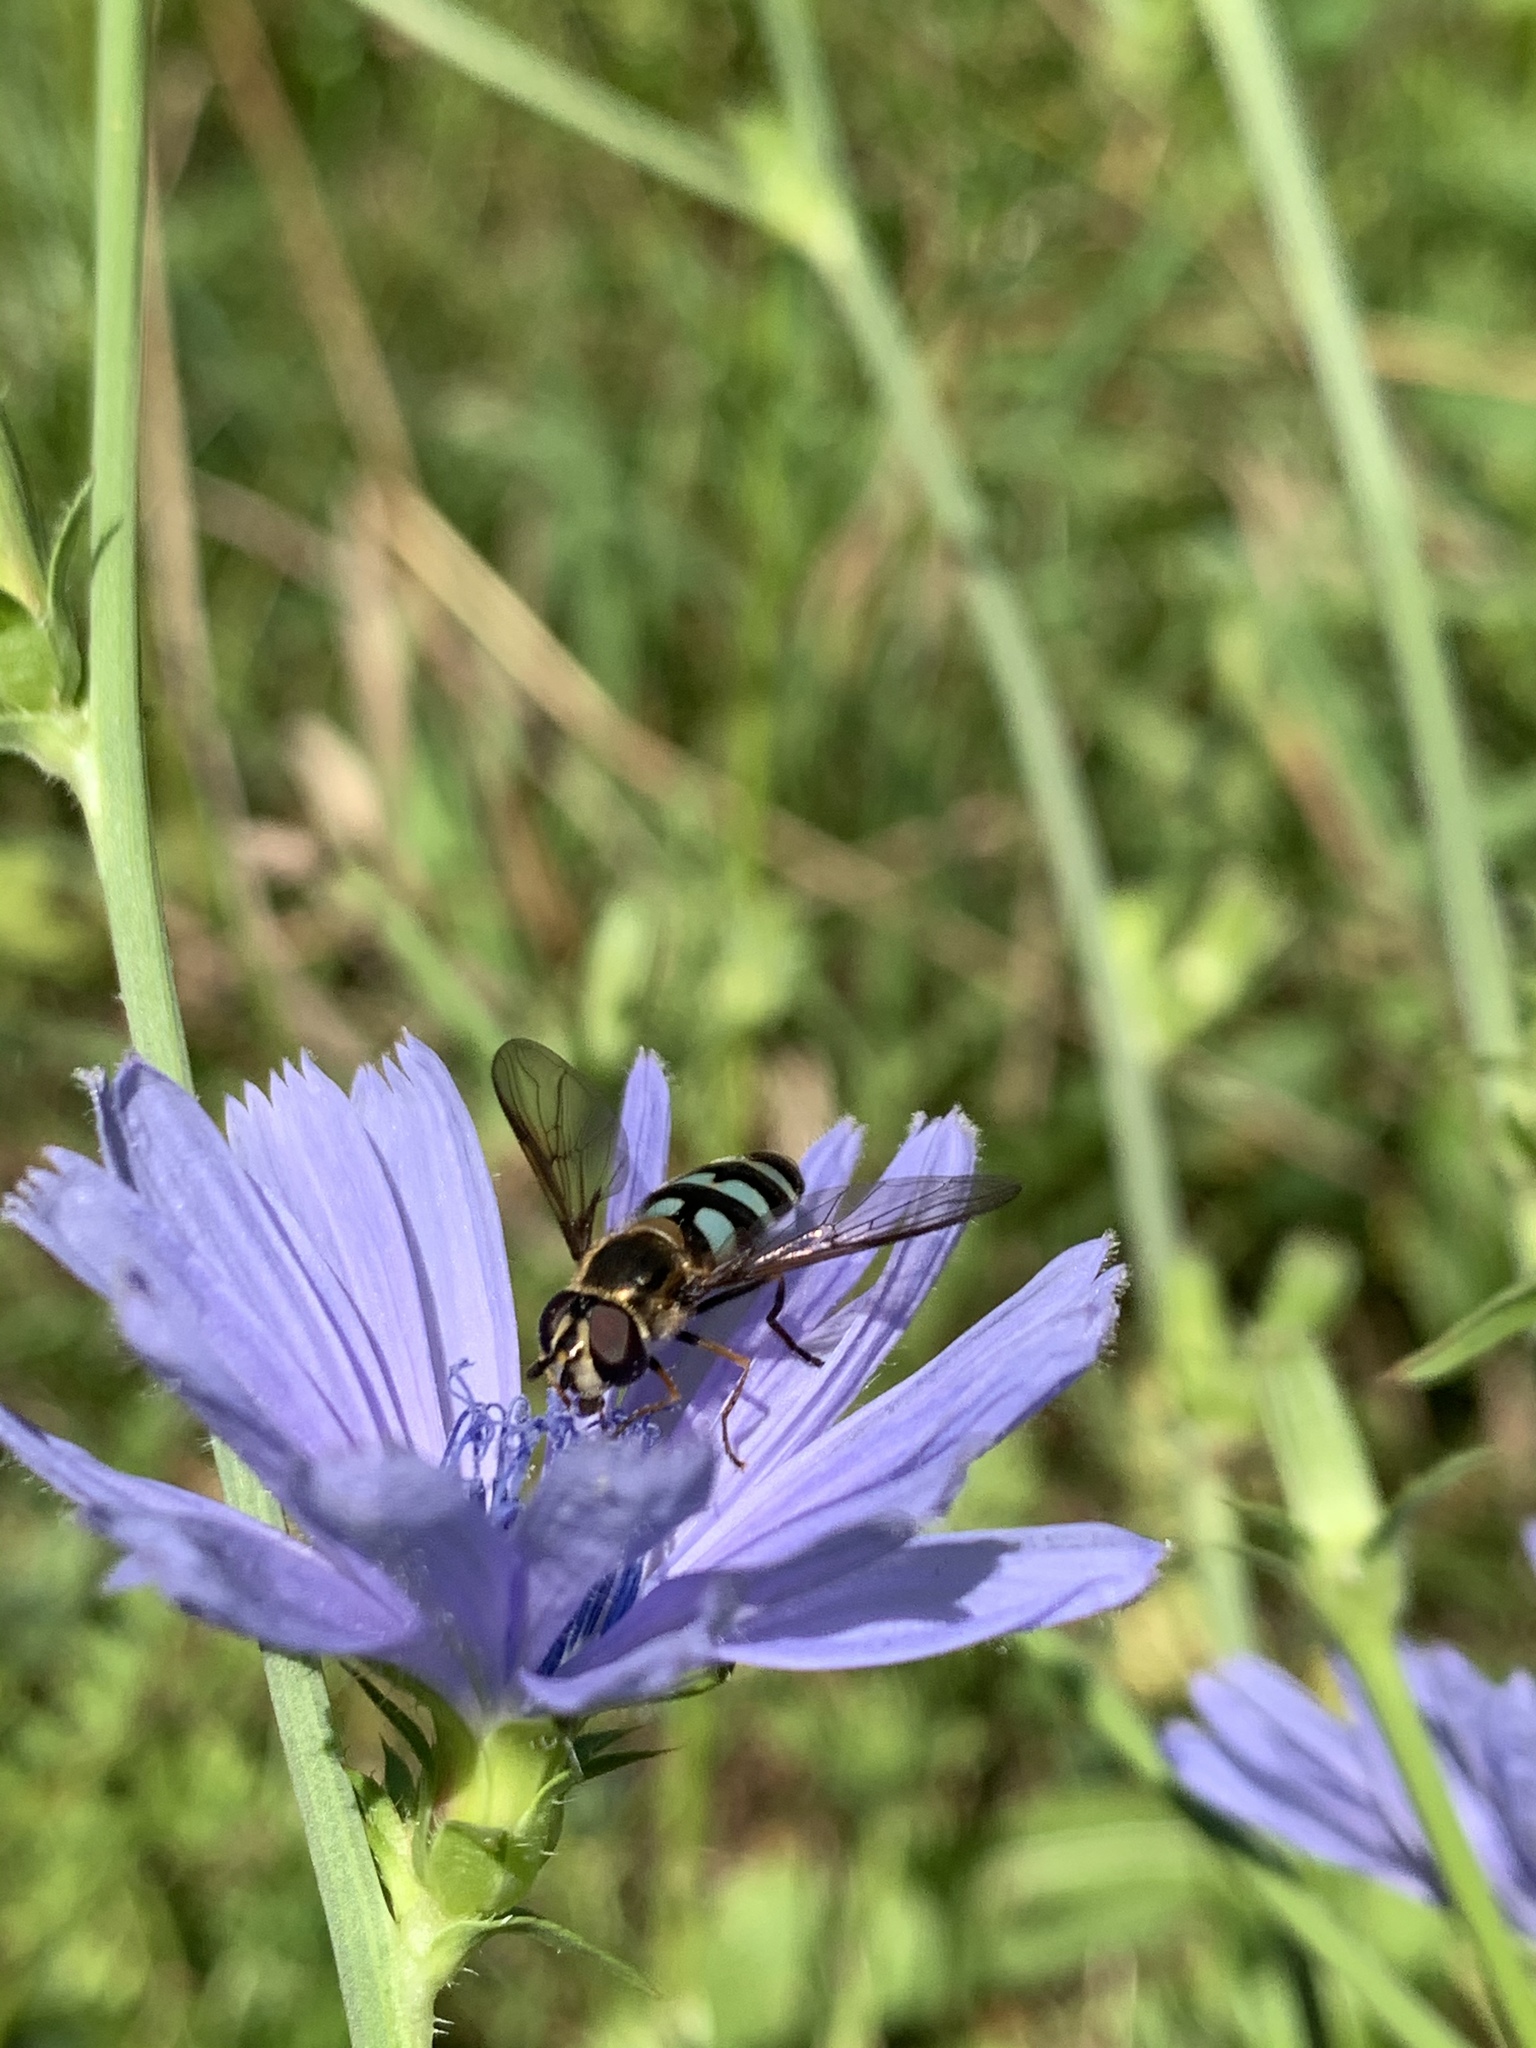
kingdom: Animalia
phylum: Arthropoda
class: Insecta
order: Diptera
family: Syrphidae
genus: Megasyrphus
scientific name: Megasyrphus laxus
